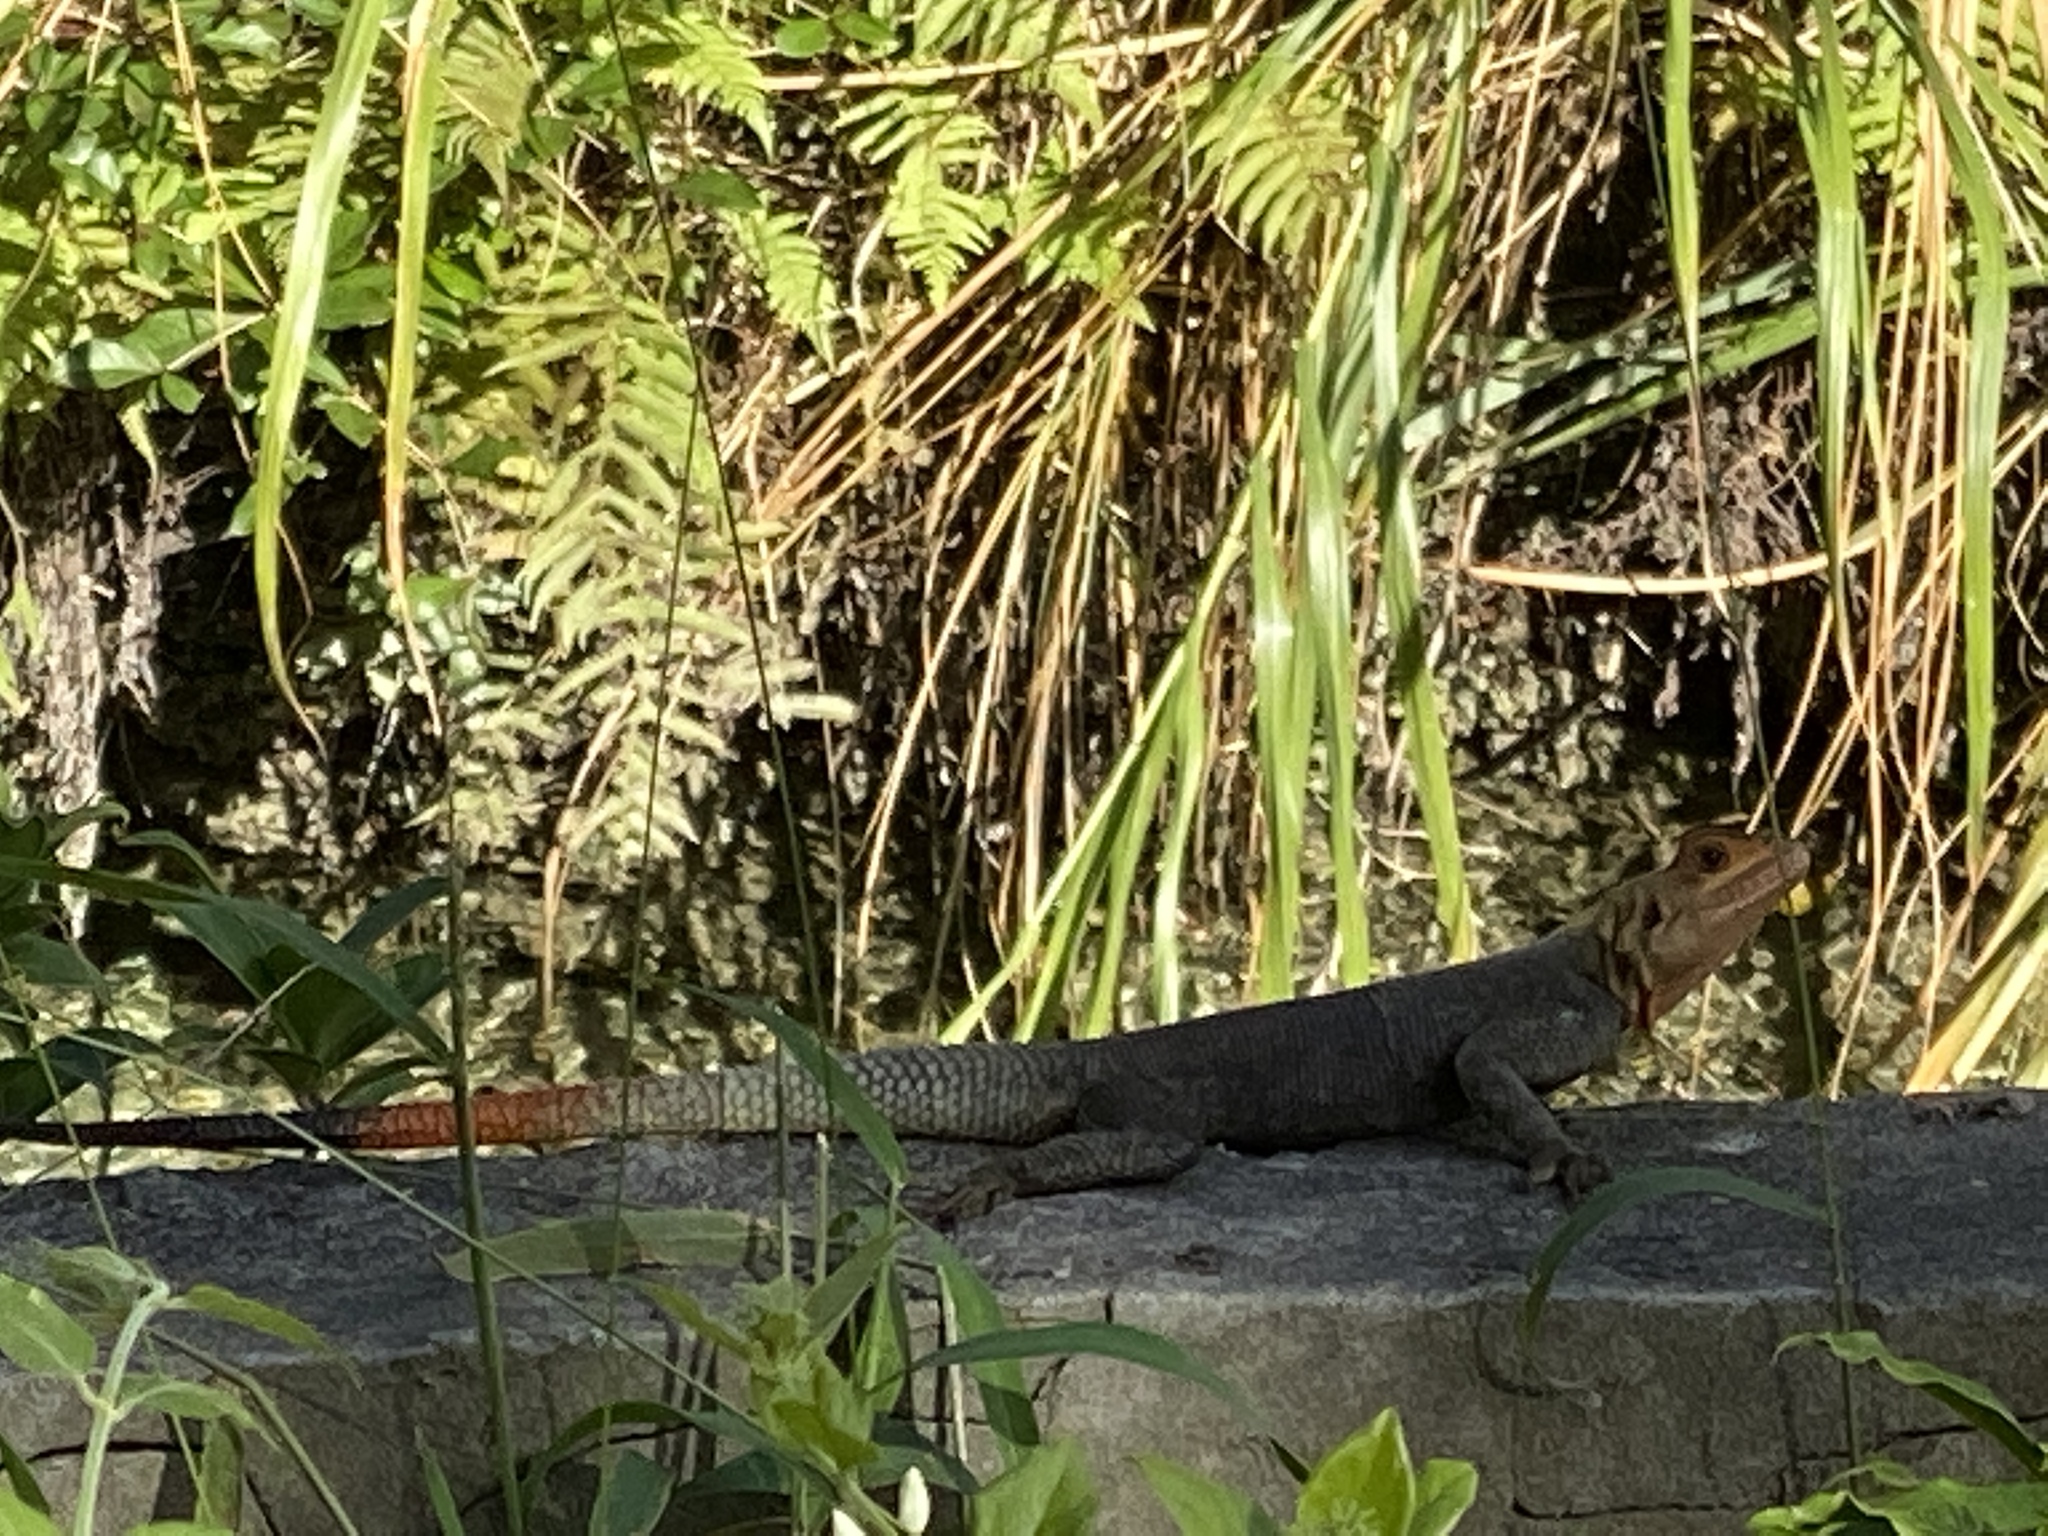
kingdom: Animalia
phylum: Chordata
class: Squamata
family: Agamidae
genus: Agama
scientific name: Agama picticauda
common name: Red-headed agama
